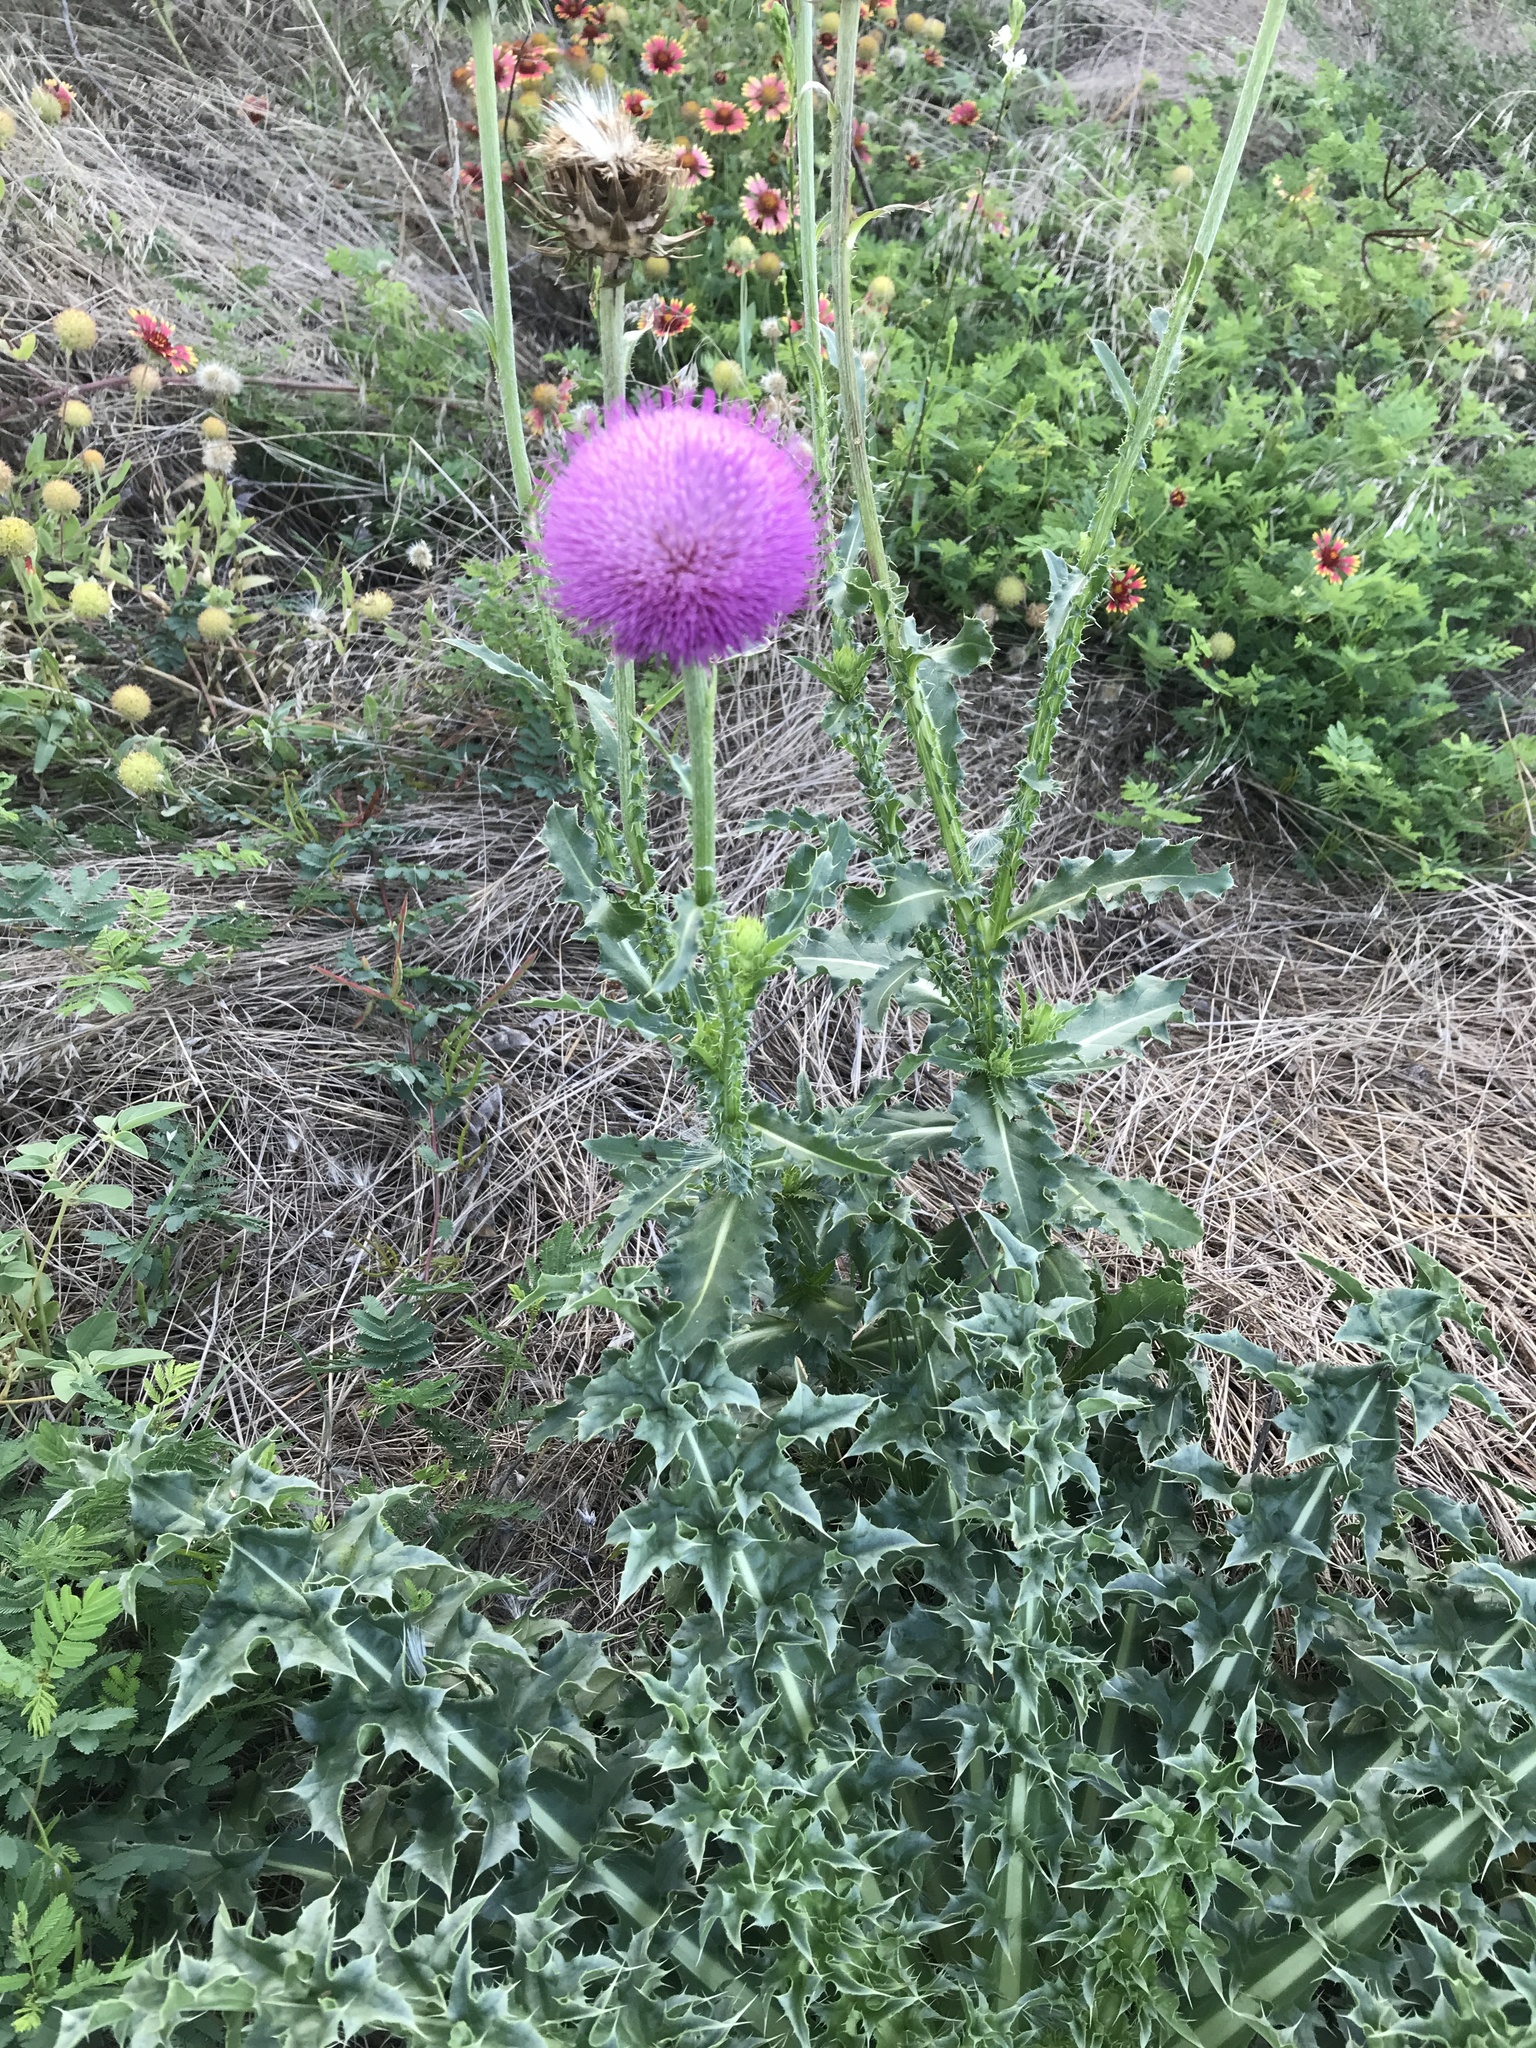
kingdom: Plantae
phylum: Tracheophyta
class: Magnoliopsida
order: Asterales
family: Asteraceae
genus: Carduus
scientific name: Carduus nutans
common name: Musk thistle
